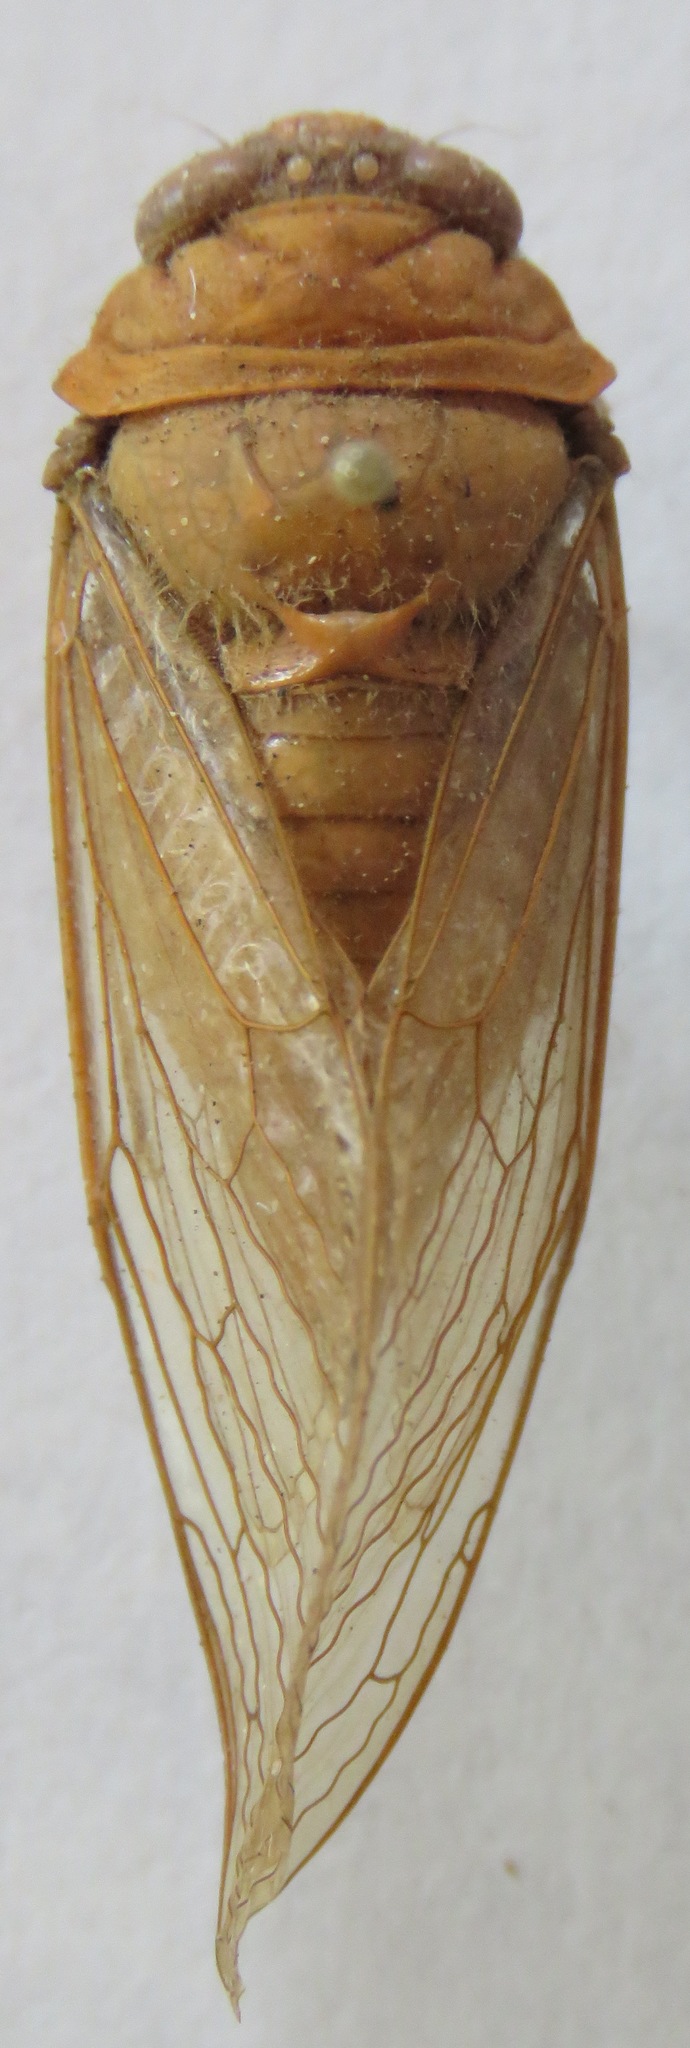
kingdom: Animalia
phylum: Arthropoda
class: Insecta
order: Hemiptera
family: Cicadidae
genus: Carineta
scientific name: Carineta viridicata
